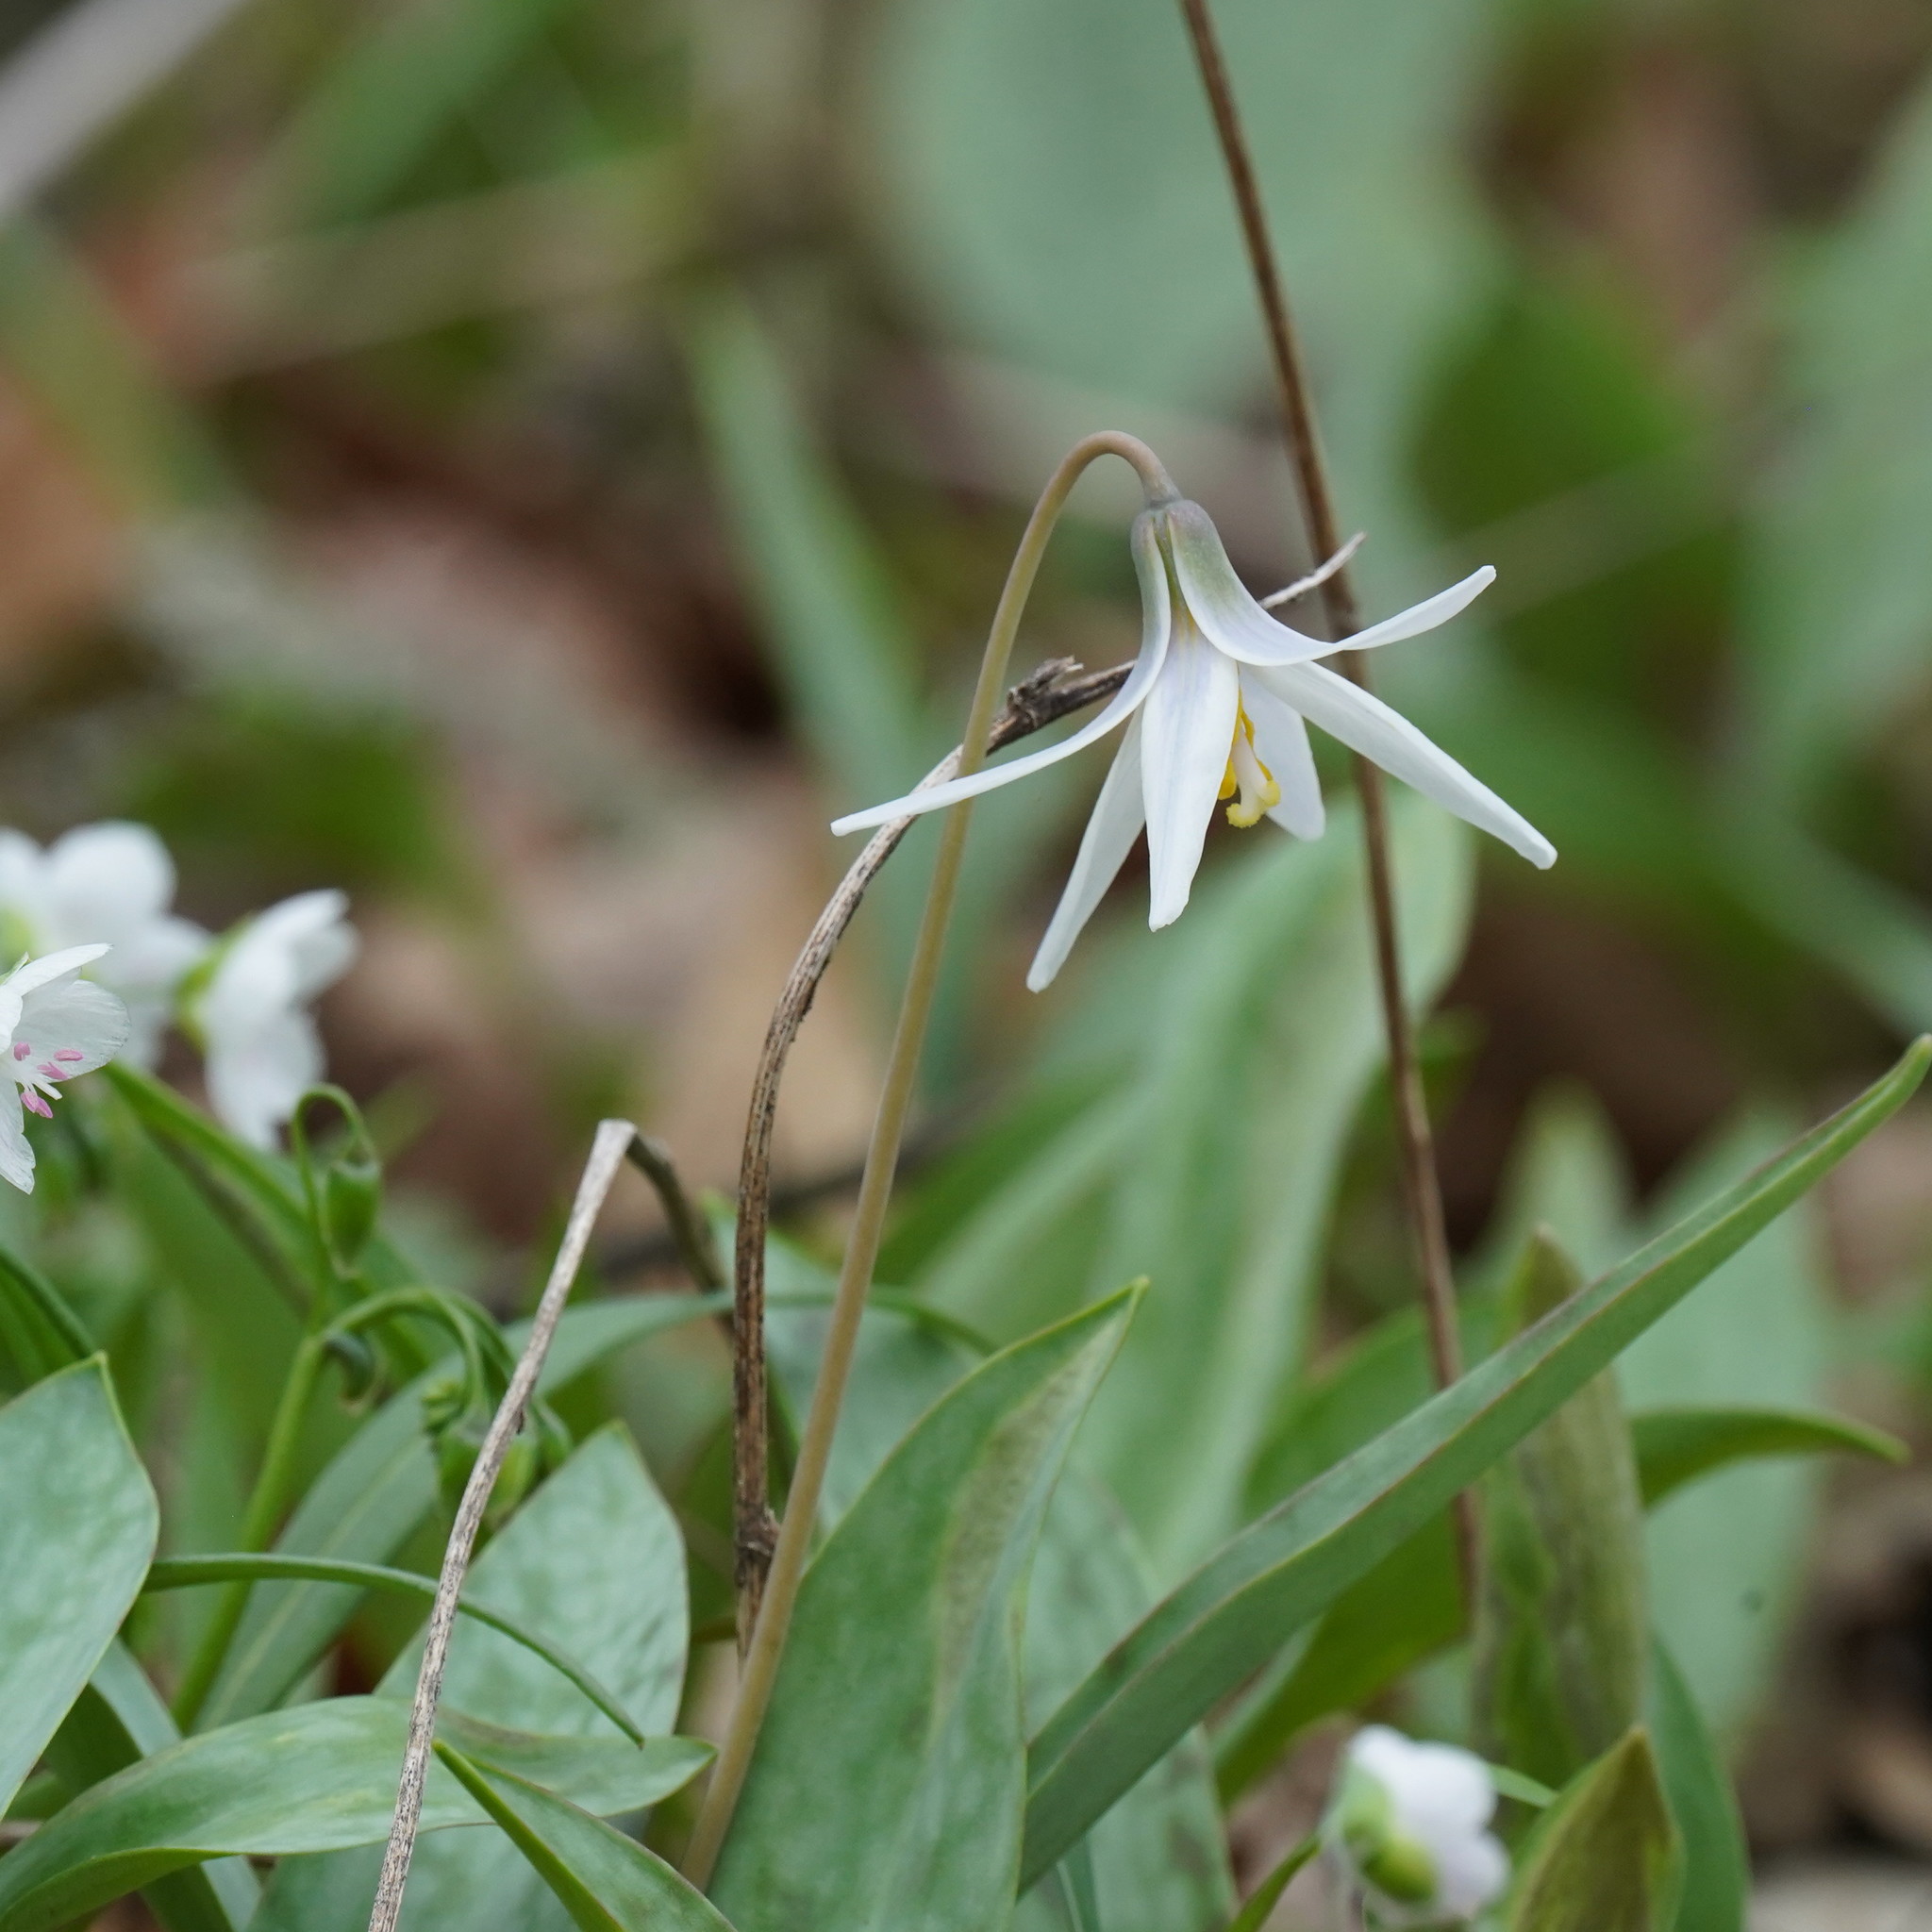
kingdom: Plantae
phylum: Tracheophyta
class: Liliopsida
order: Liliales
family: Liliaceae
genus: Erythronium
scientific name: Erythronium albidum
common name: White trout-lily
